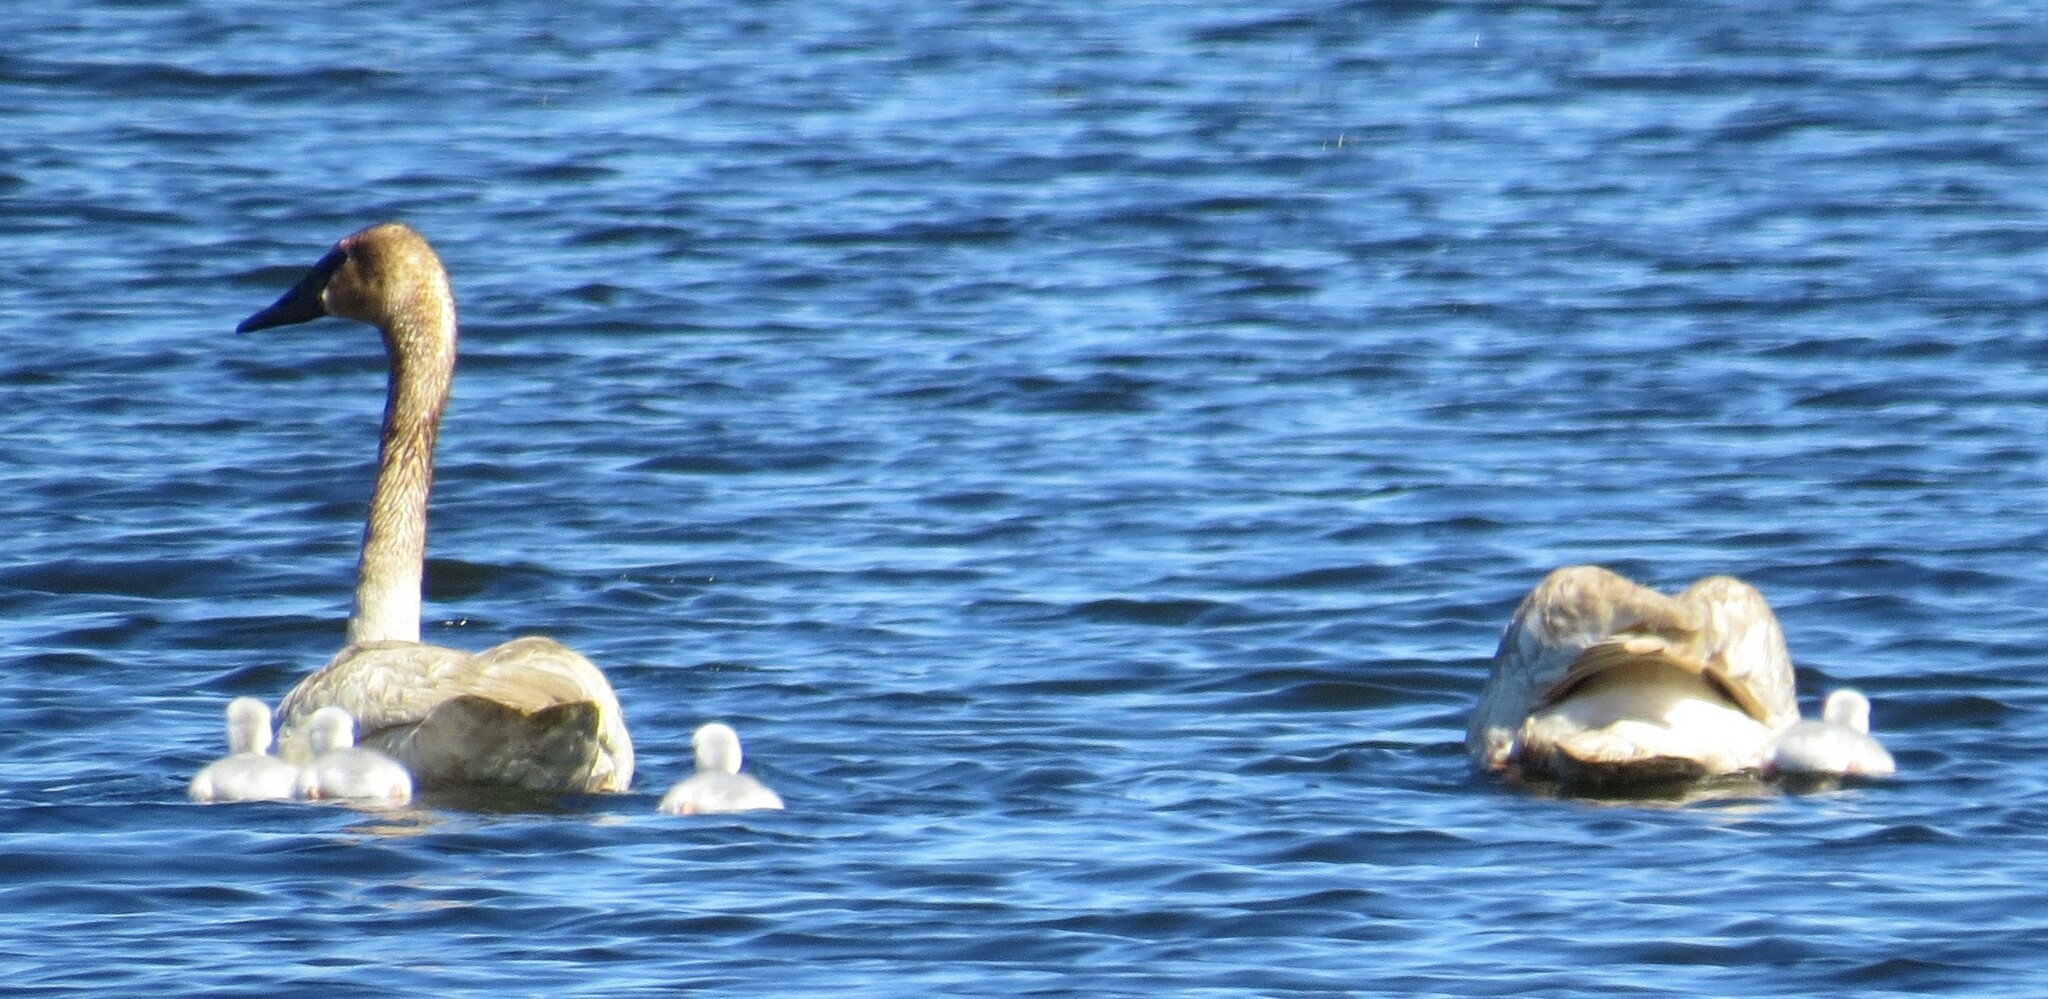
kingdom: Animalia
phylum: Chordata
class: Aves
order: Anseriformes
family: Anatidae
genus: Cygnus
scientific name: Cygnus buccinator
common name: Trumpeter swan
